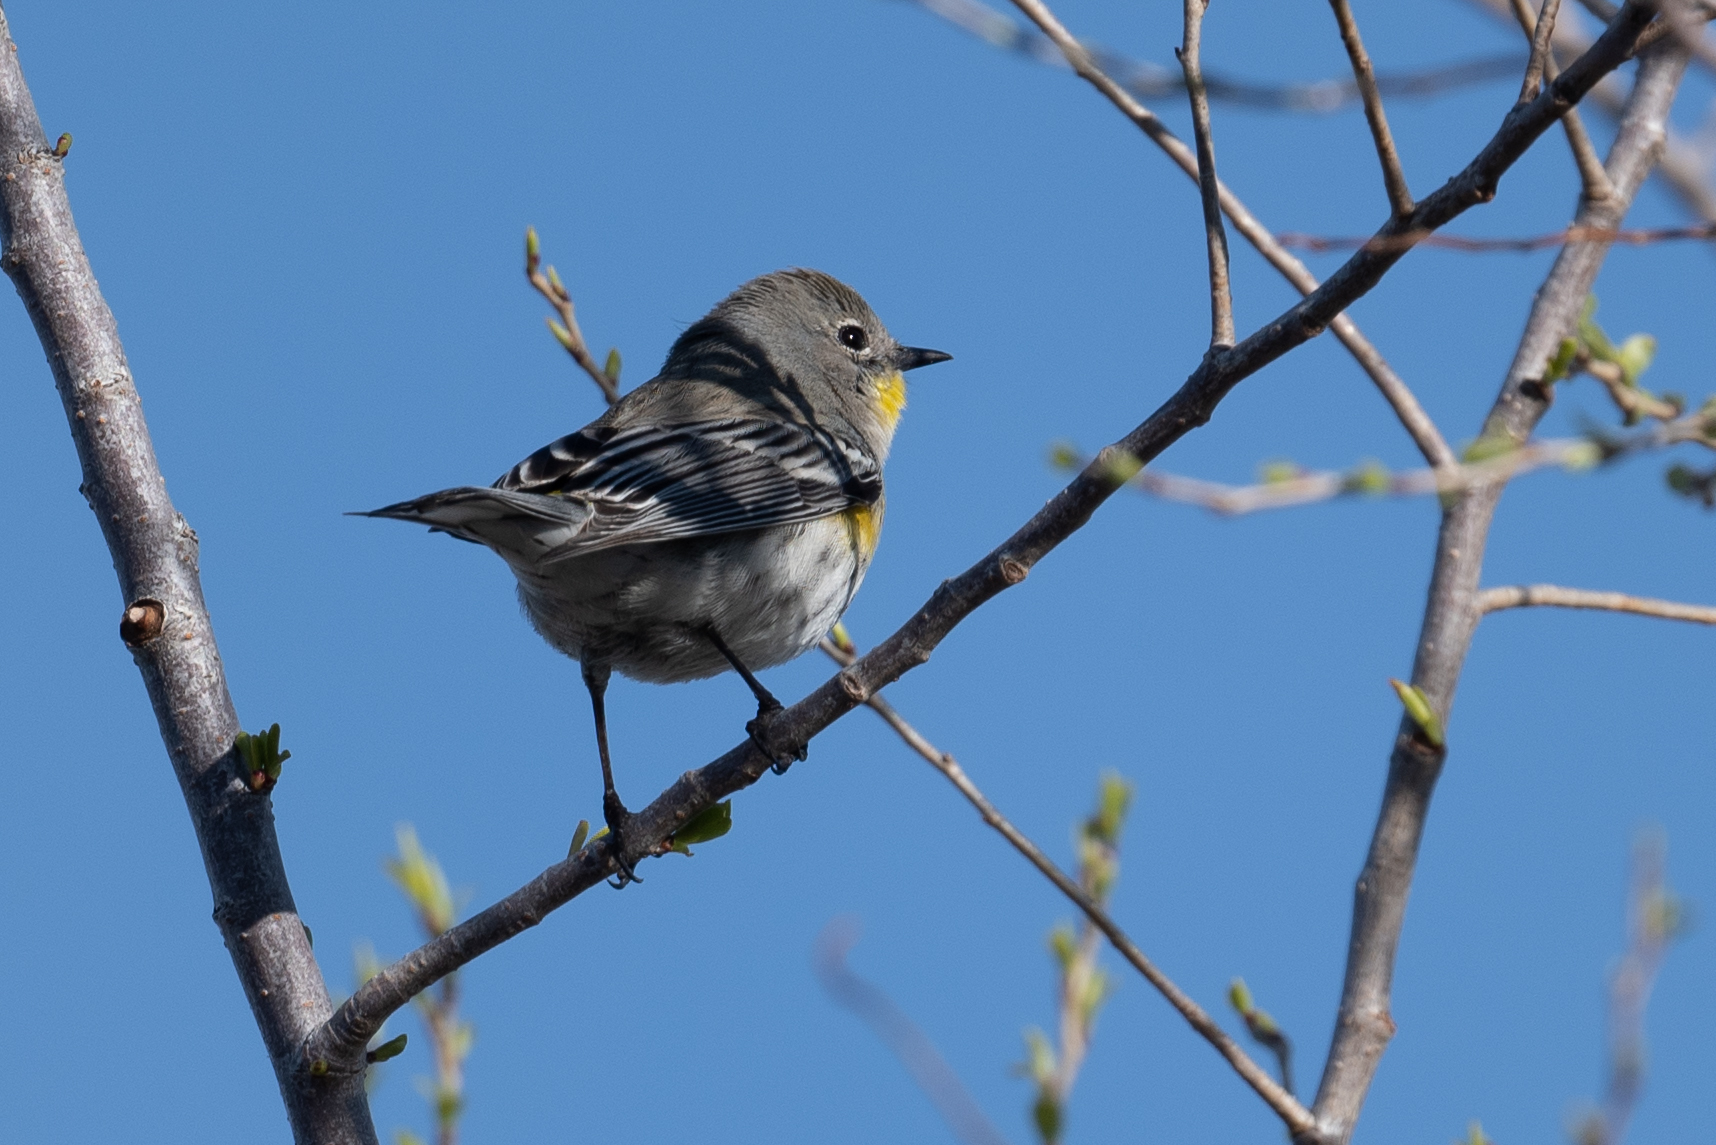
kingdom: Animalia
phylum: Chordata
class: Aves
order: Passeriformes
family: Parulidae
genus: Setophaga
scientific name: Setophaga coronata
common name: Myrtle warbler
